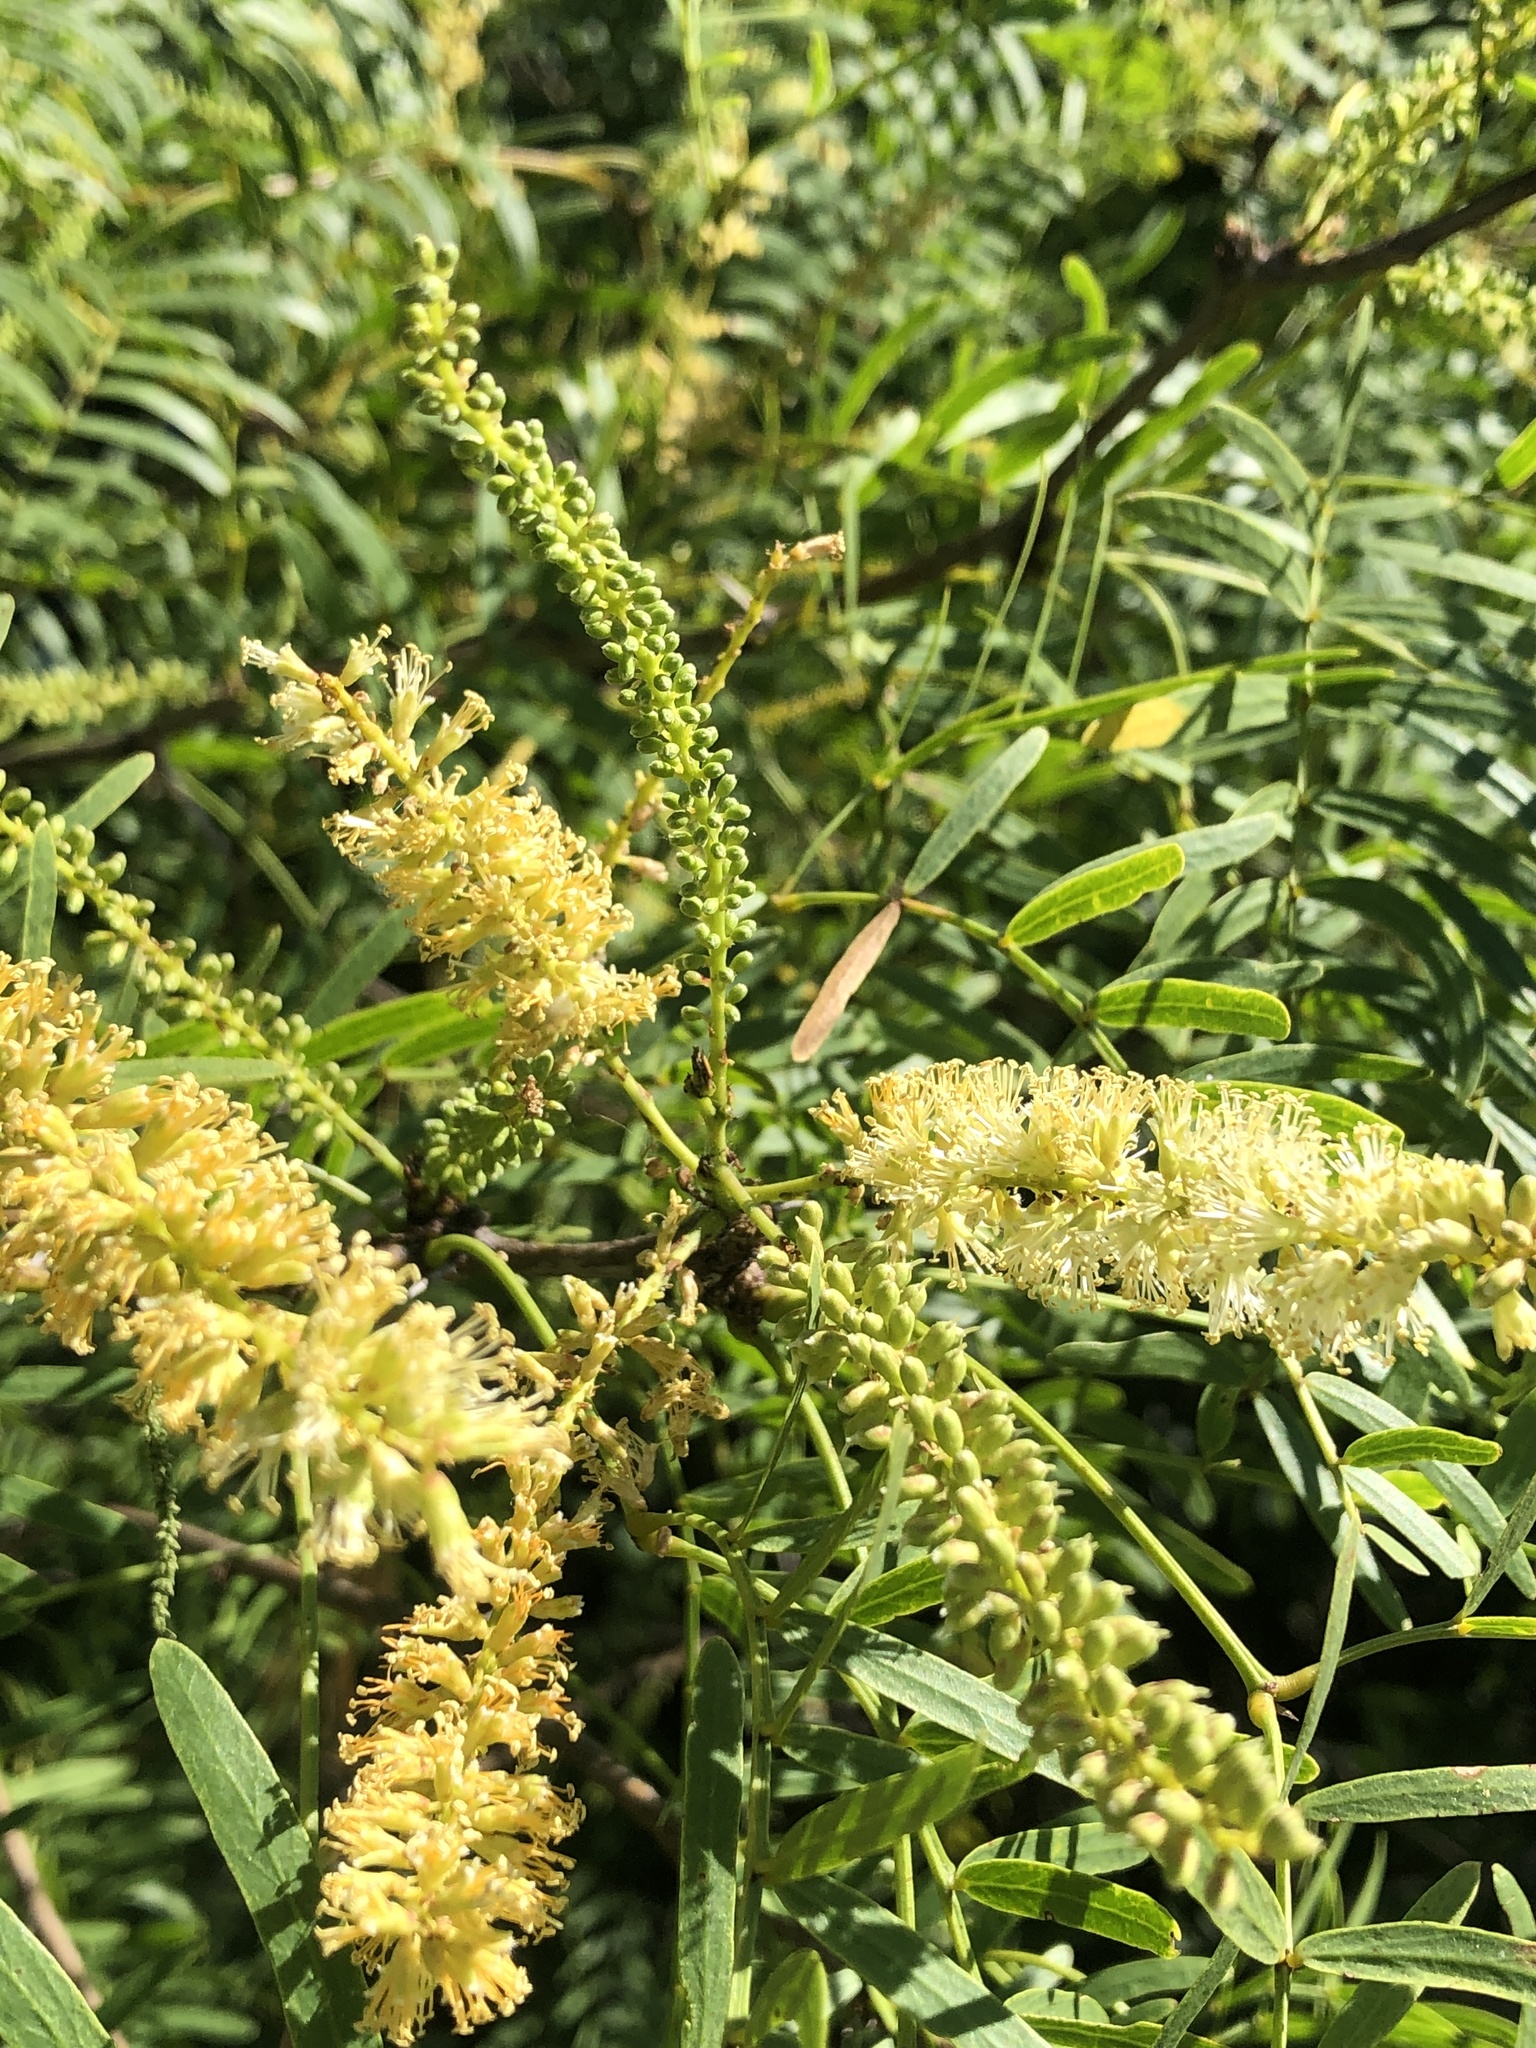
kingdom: Plantae
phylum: Tracheophyta
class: Magnoliopsida
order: Fabales
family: Fabaceae
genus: Prosopis
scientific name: Prosopis glandulosa
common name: Honey mesquite
